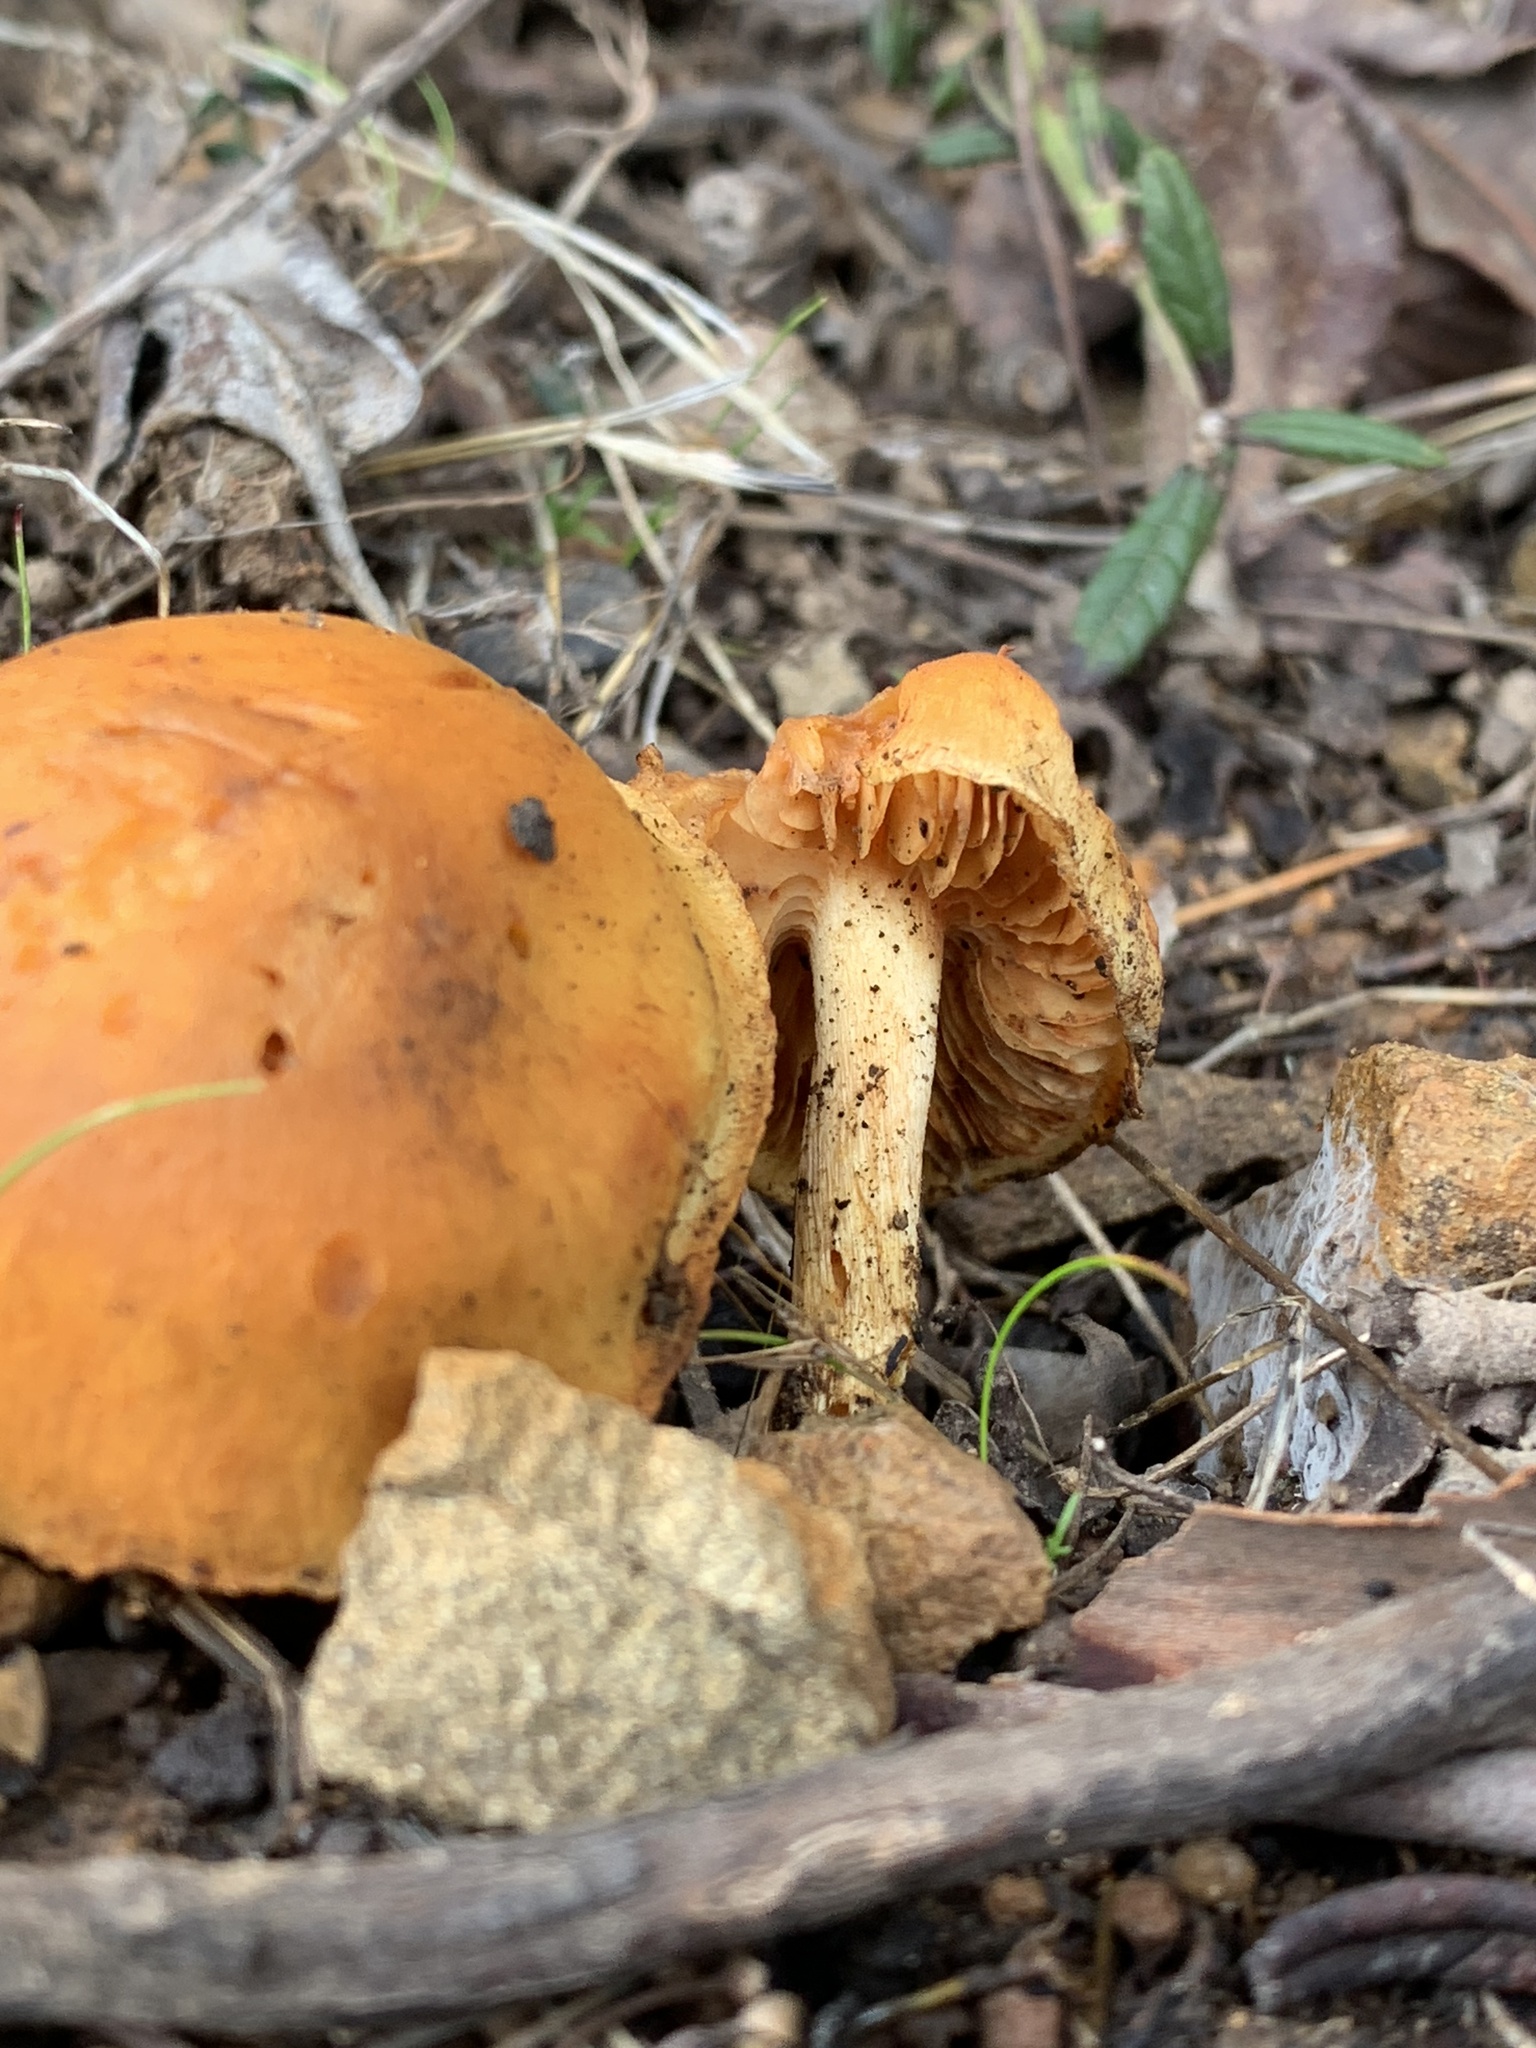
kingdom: Fungi
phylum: Basidiomycota
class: Agaricomycetes
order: Agaricales
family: Hymenogastraceae
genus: Gymnopilus
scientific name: Gymnopilus aurantiophyllus
